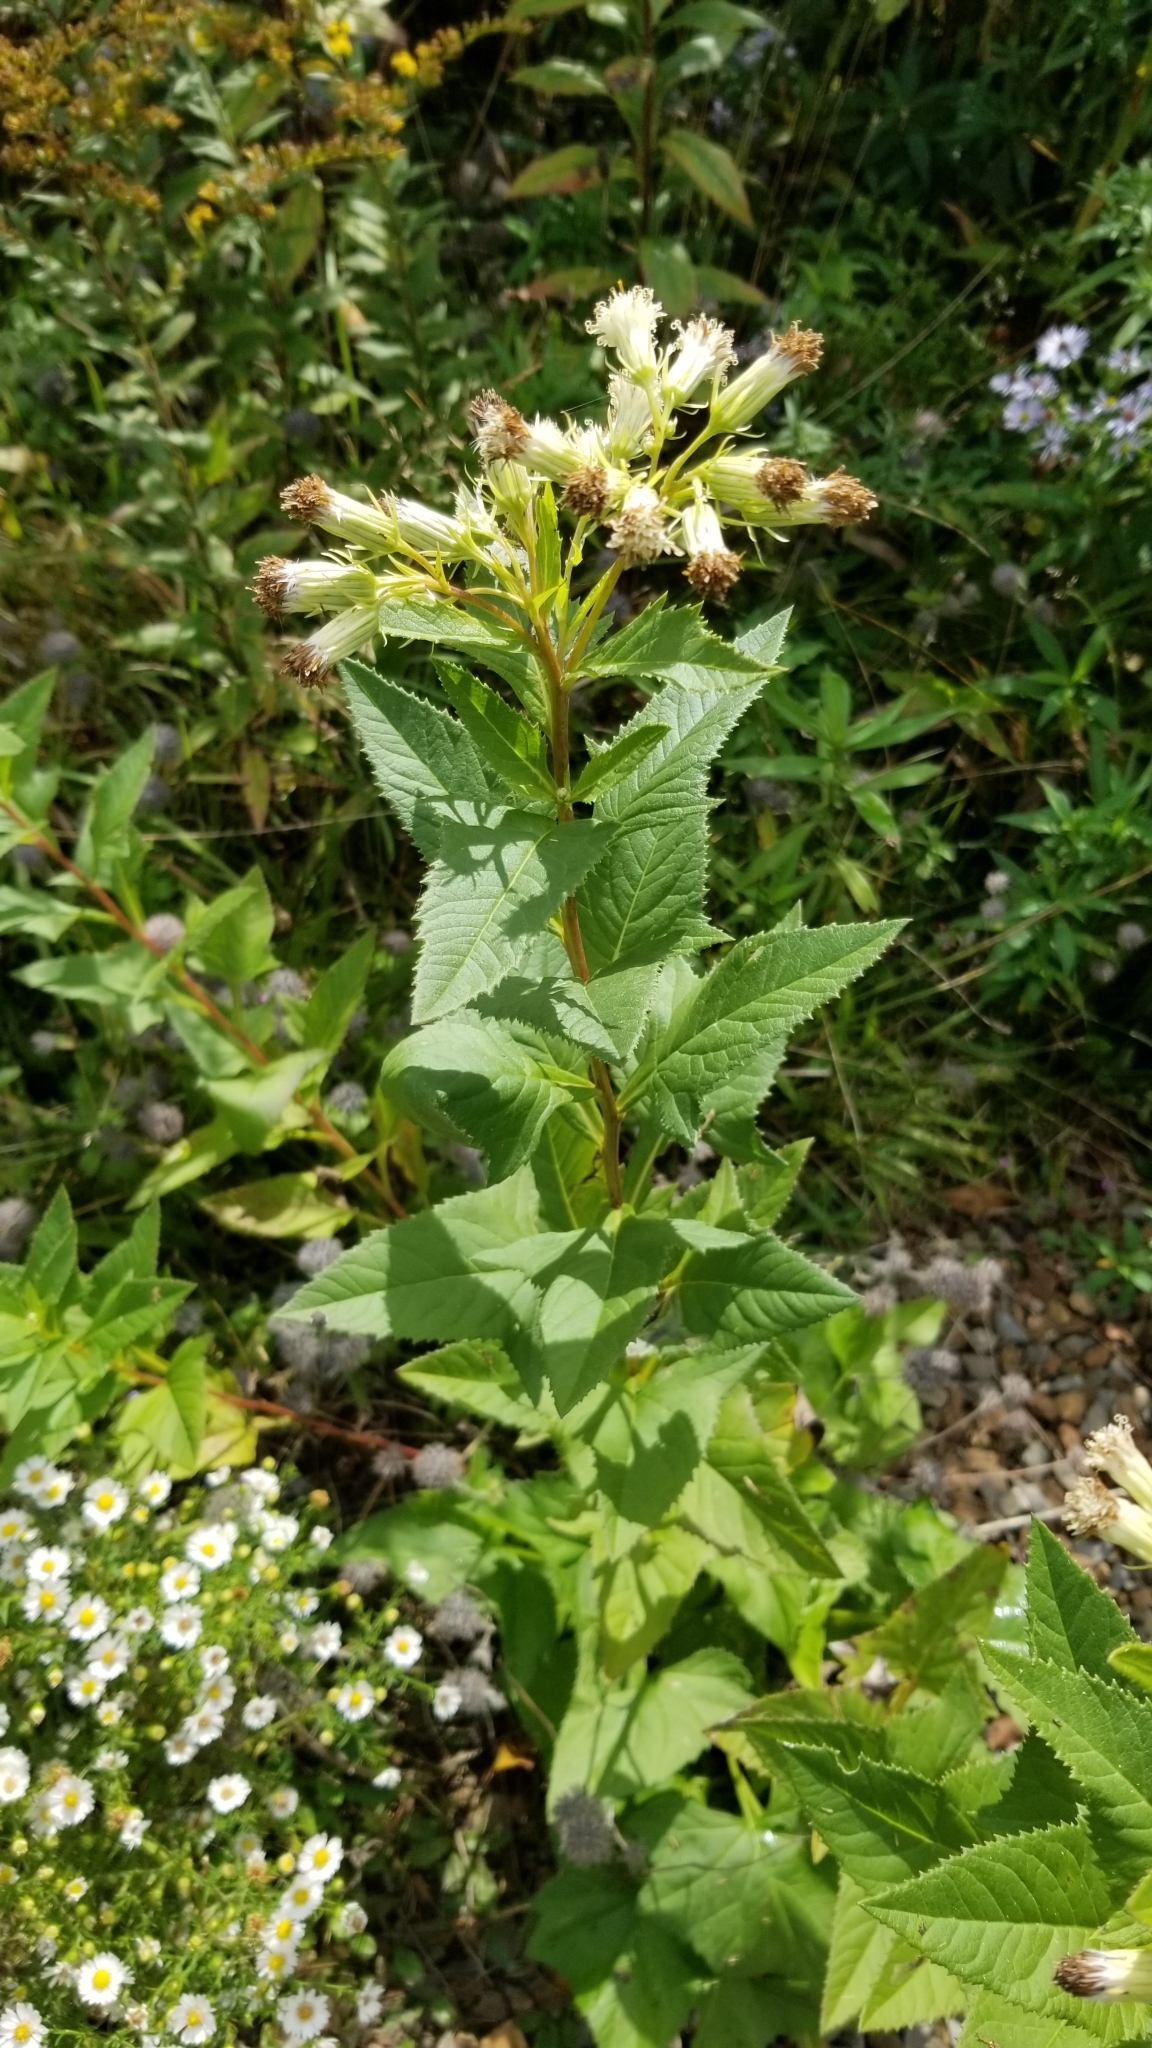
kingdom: Plantae
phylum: Tracheophyta
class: Magnoliopsida
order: Asterales
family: Asteraceae
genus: Hasteola
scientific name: Hasteola suaveolens
